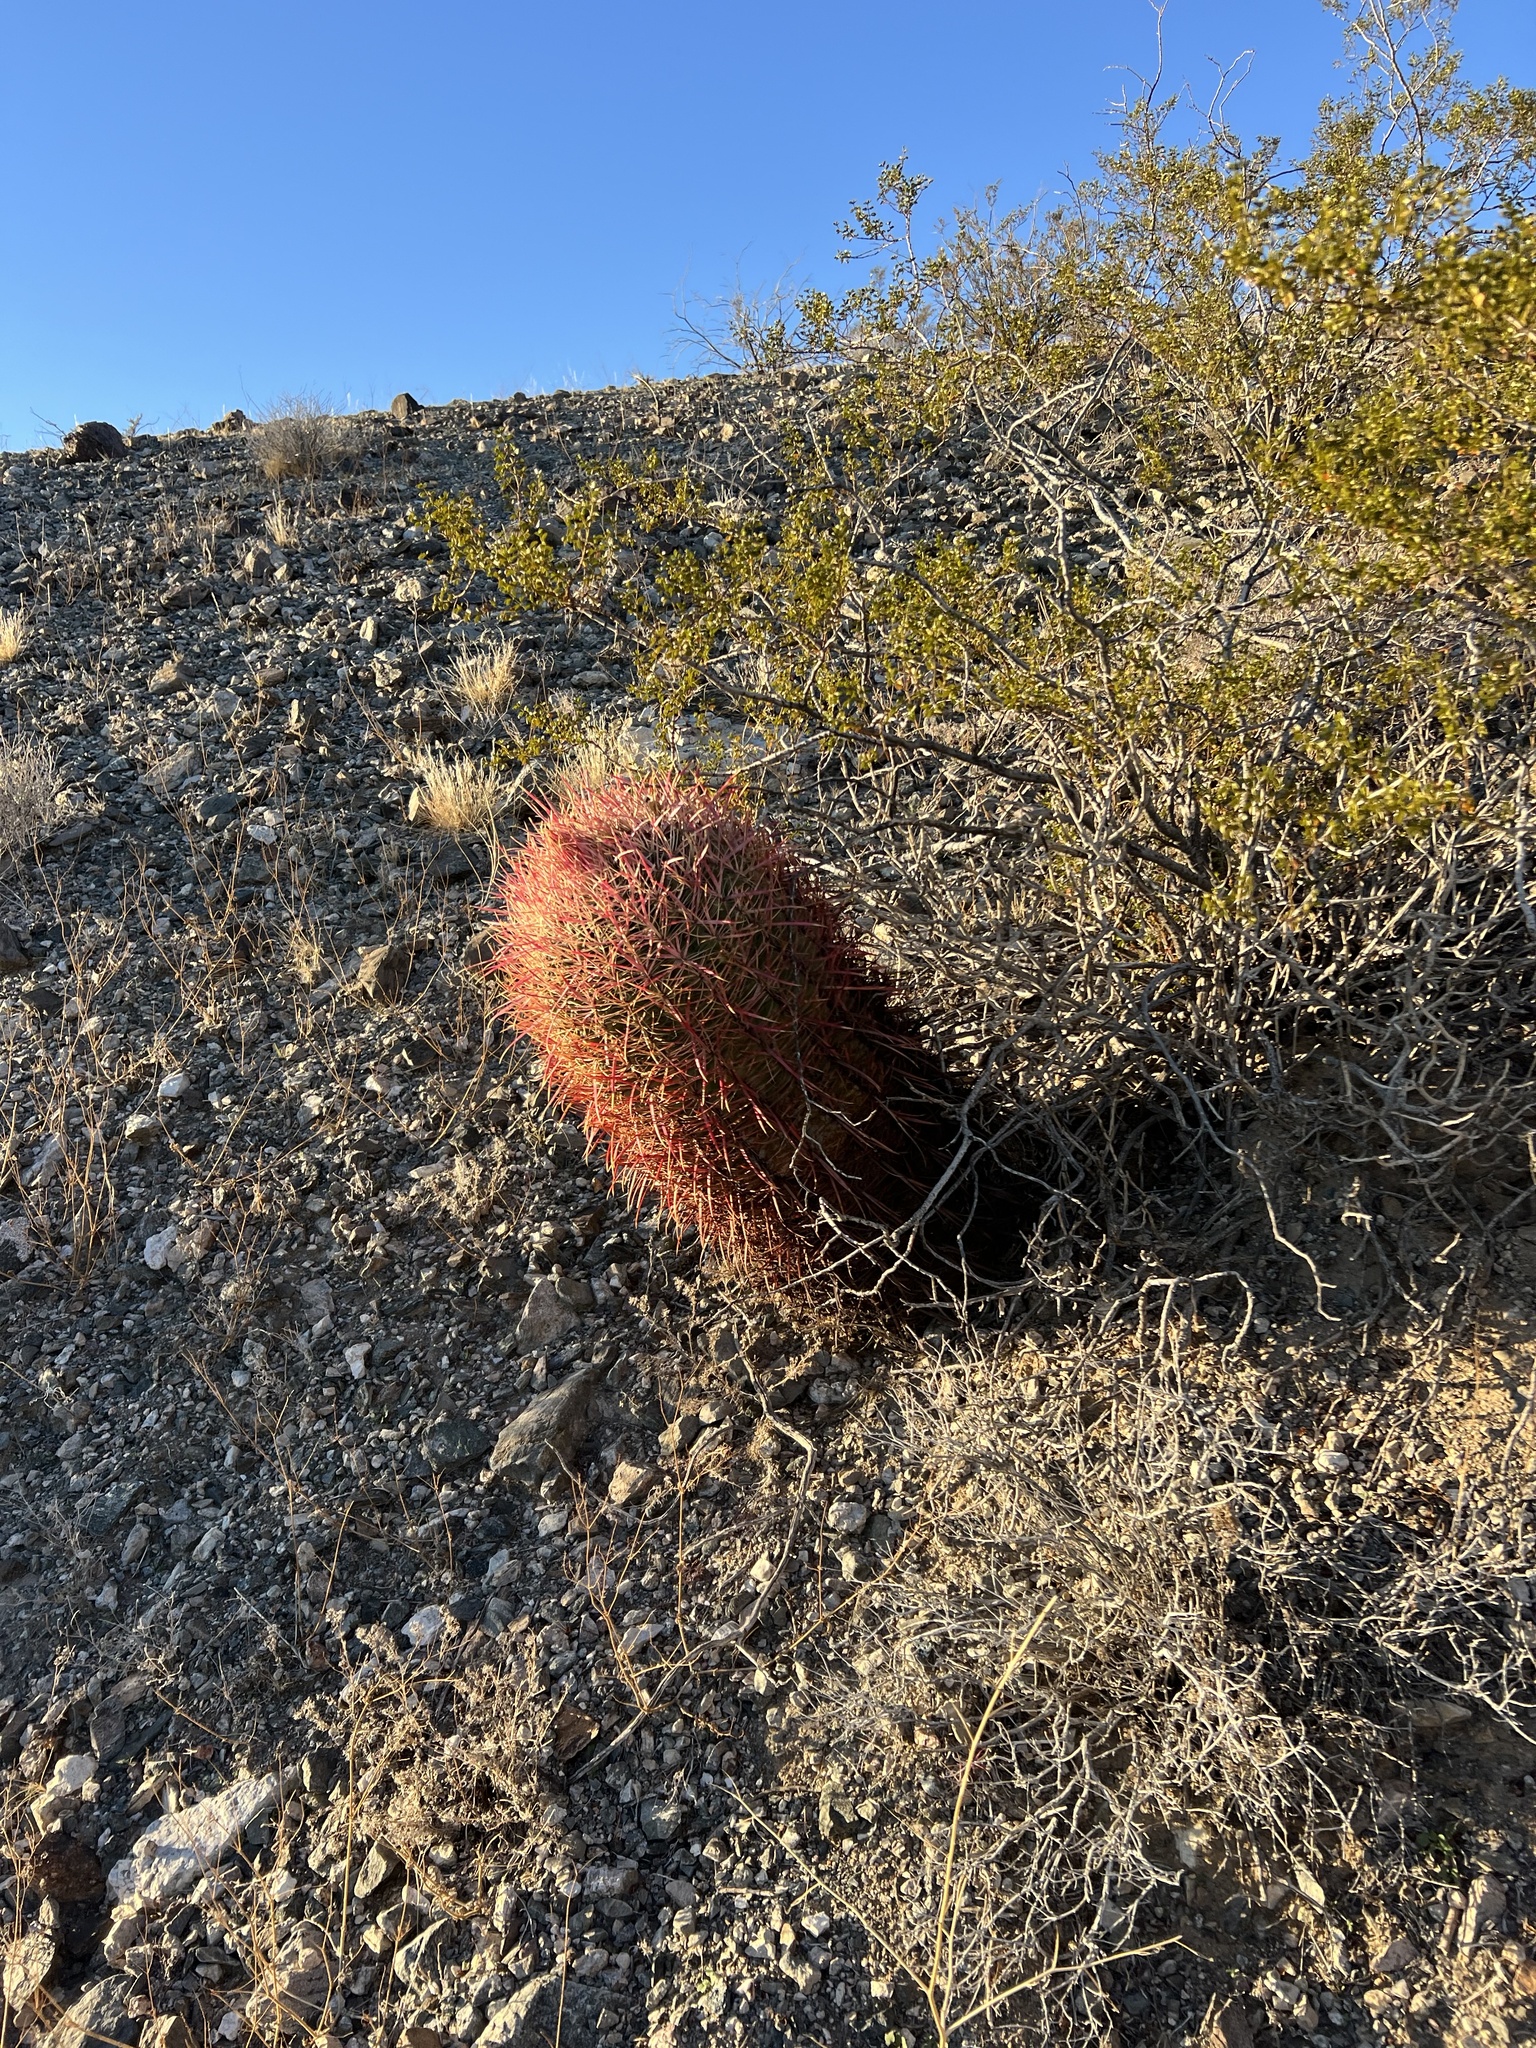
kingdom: Plantae
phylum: Tracheophyta
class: Magnoliopsida
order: Caryophyllales
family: Cactaceae
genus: Ferocactus
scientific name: Ferocactus cylindraceus
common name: California barrel cactus
